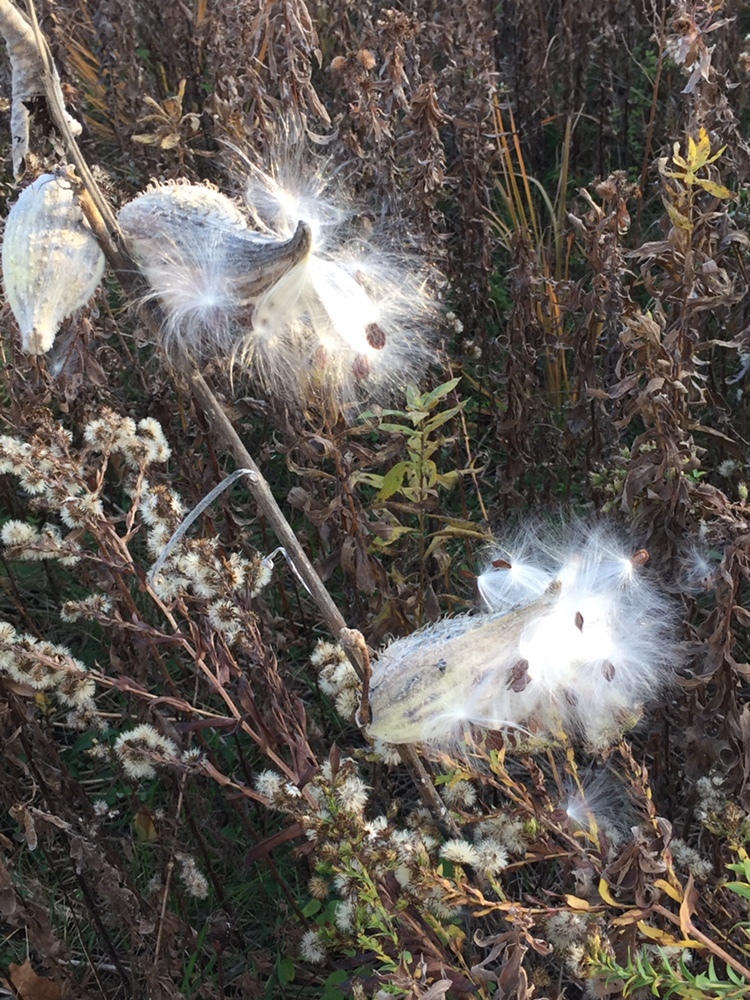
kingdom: Plantae
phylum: Tracheophyta
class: Magnoliopsida
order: Gentianales
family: Apocynaceae
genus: Asclepias
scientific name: Asclepias syriaca
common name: Common milkweed
